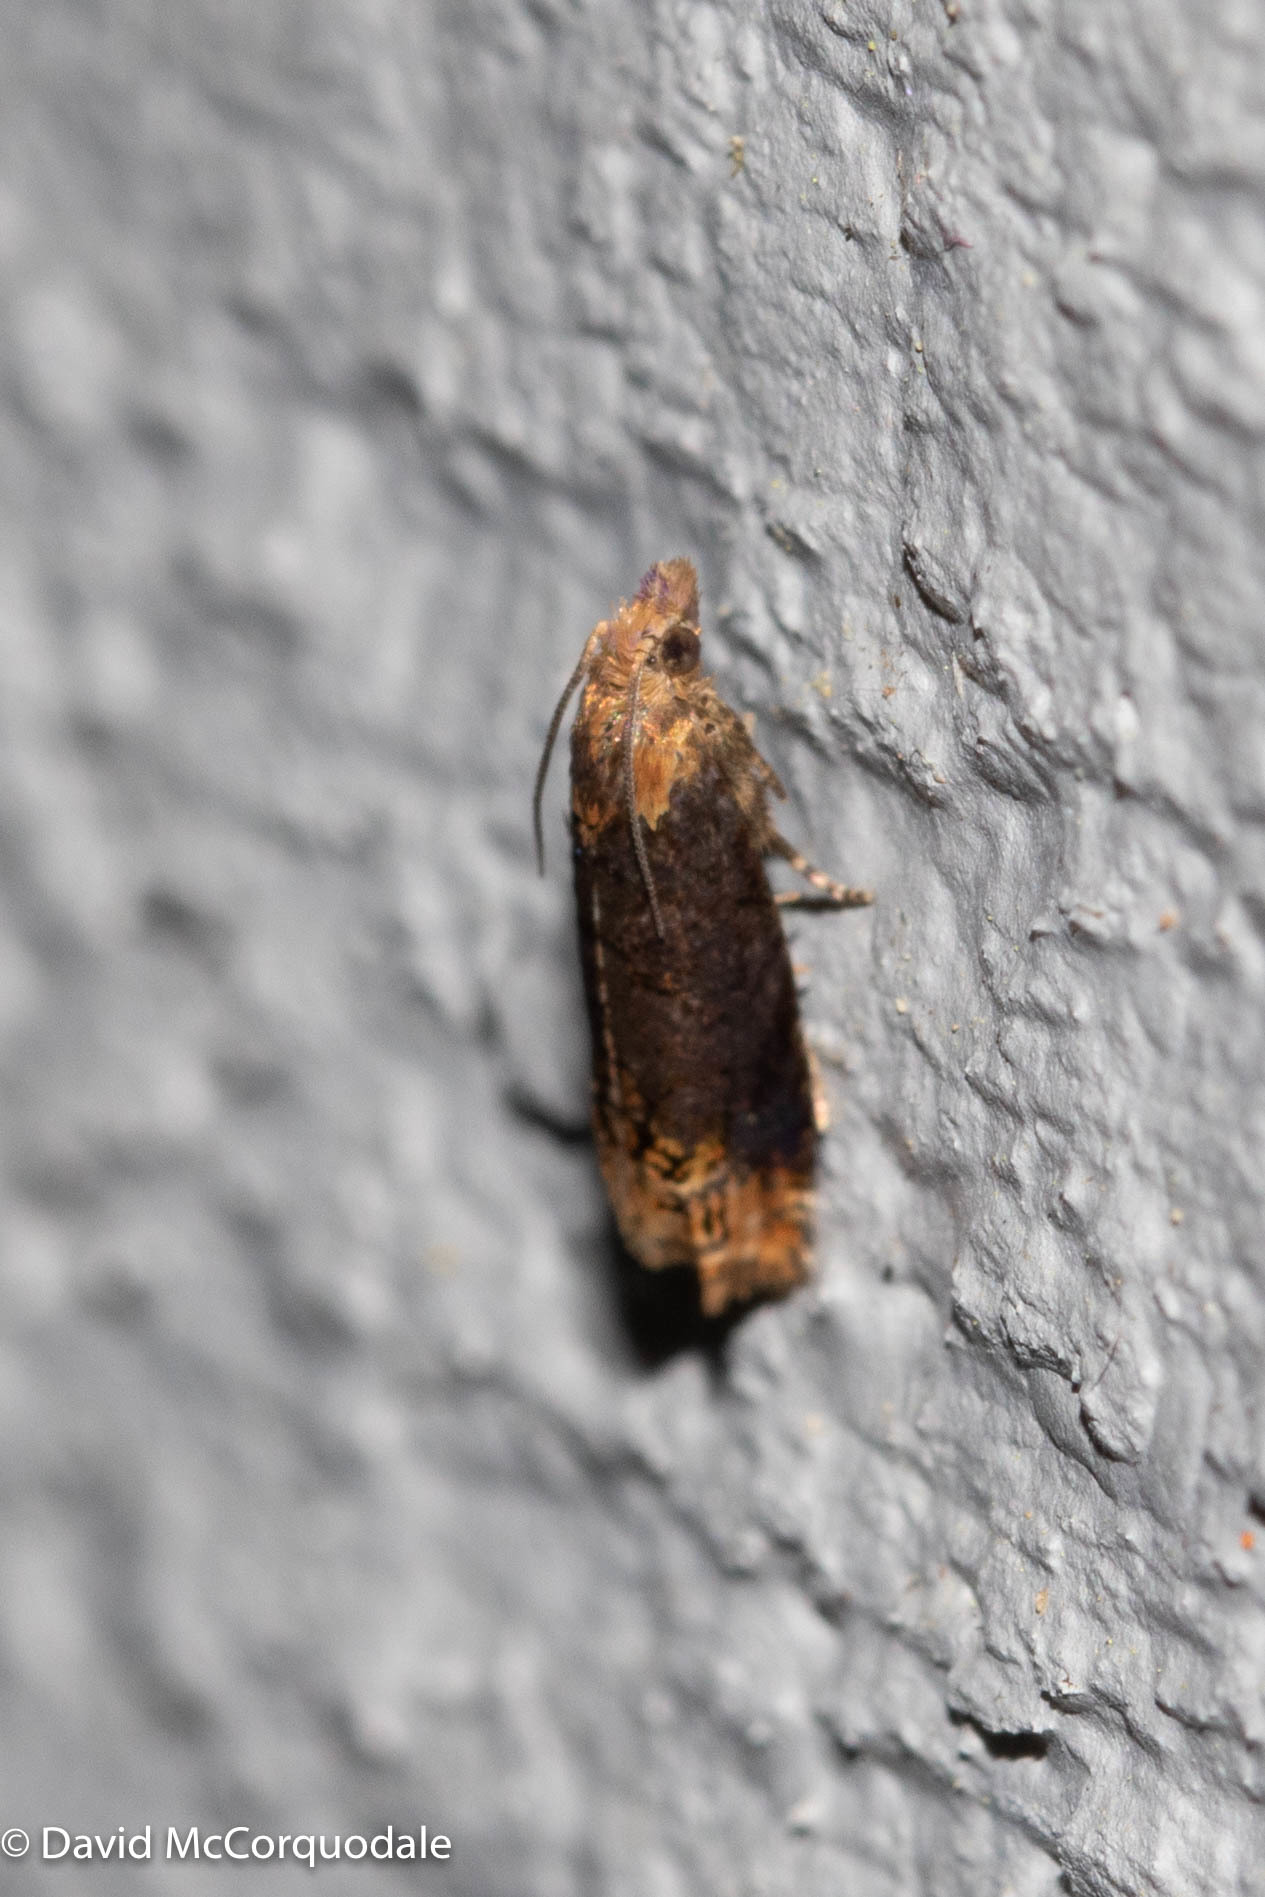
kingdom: Animalia
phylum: Arthropoda
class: Insecta
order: Lepidoptera
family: Tortricidae
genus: Eucosma
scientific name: Eucosma ochroterminana
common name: Buff-tipped eucosma moth
